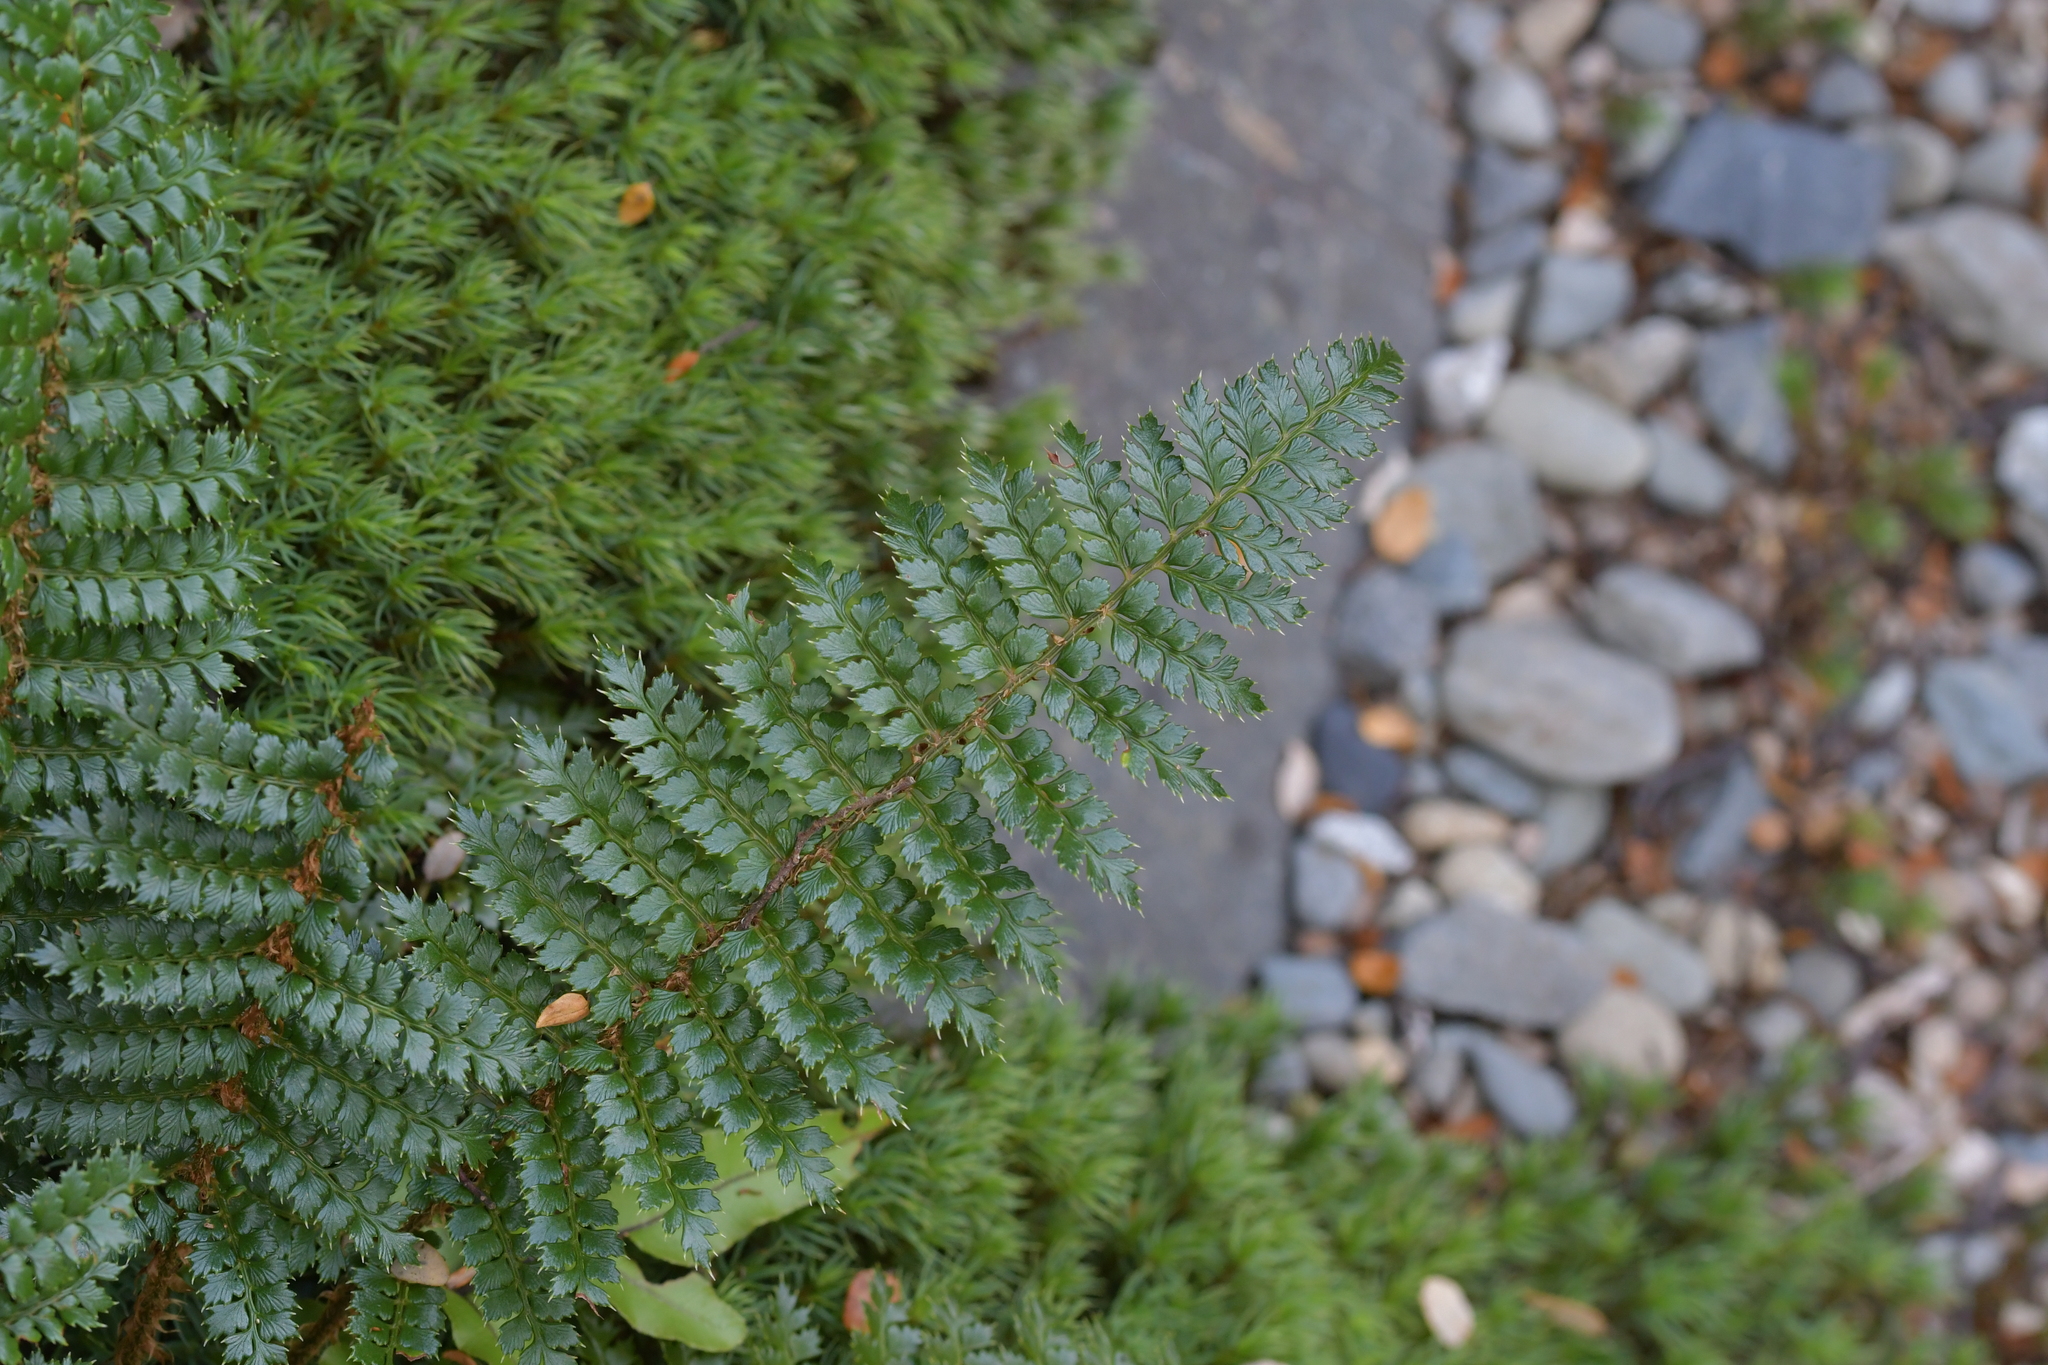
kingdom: Plantae
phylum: Tracheophyta
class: Polypodiopsida
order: Polypodiales
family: Dryopteridaceae
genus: Polystichum
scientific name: Polystichum vestitum
